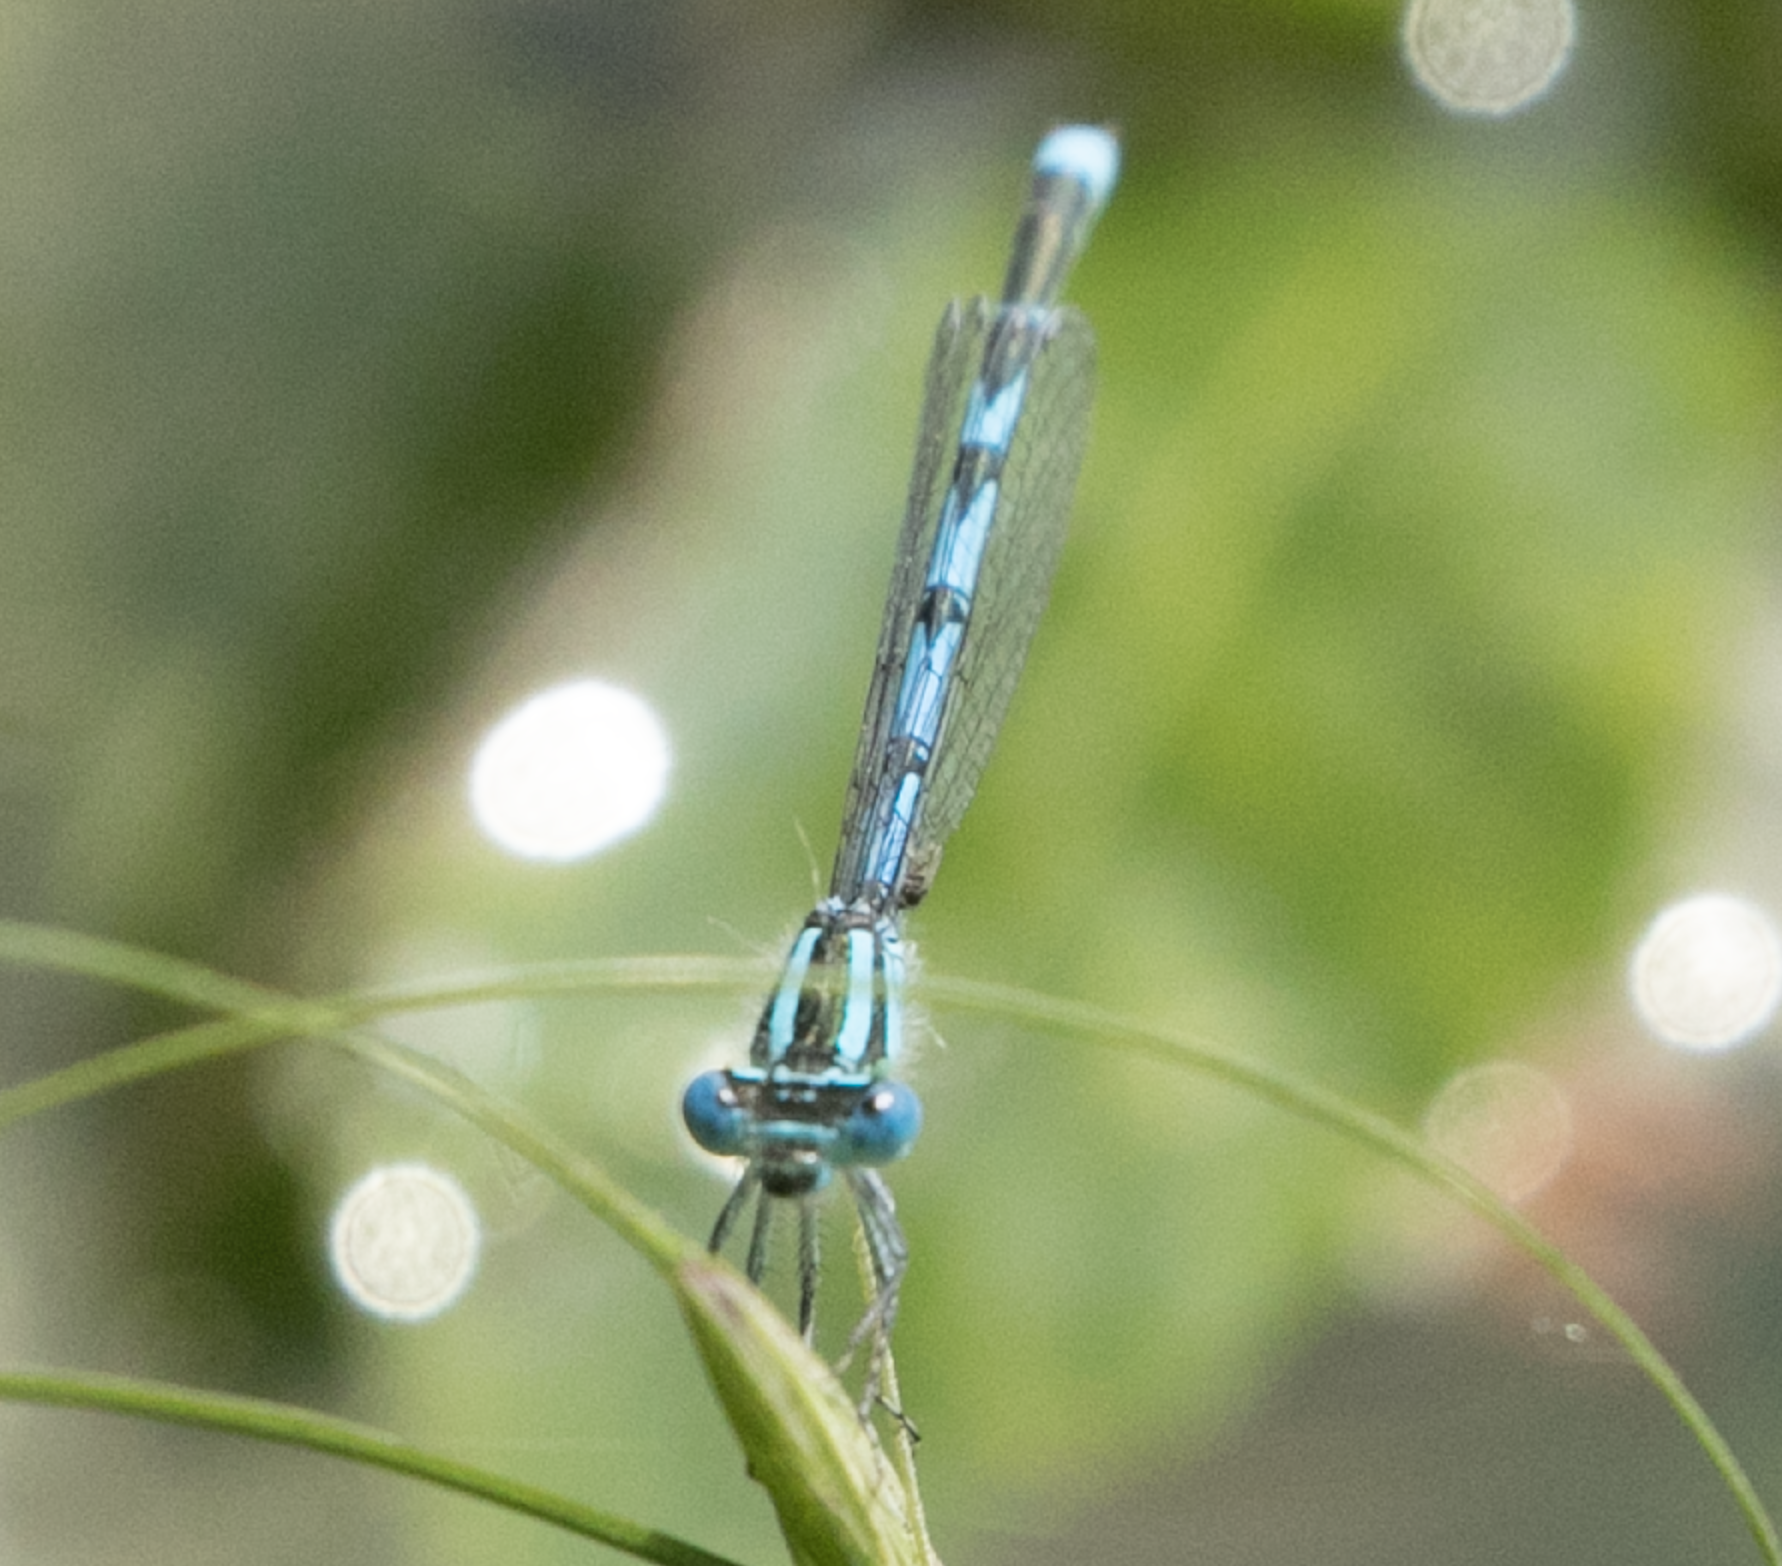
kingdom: Animalia
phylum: Arthropoda
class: Insecta
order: Odonata
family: Coenagrionidae
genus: Erythromma
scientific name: Erythromma lindenii
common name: Blue-eye
